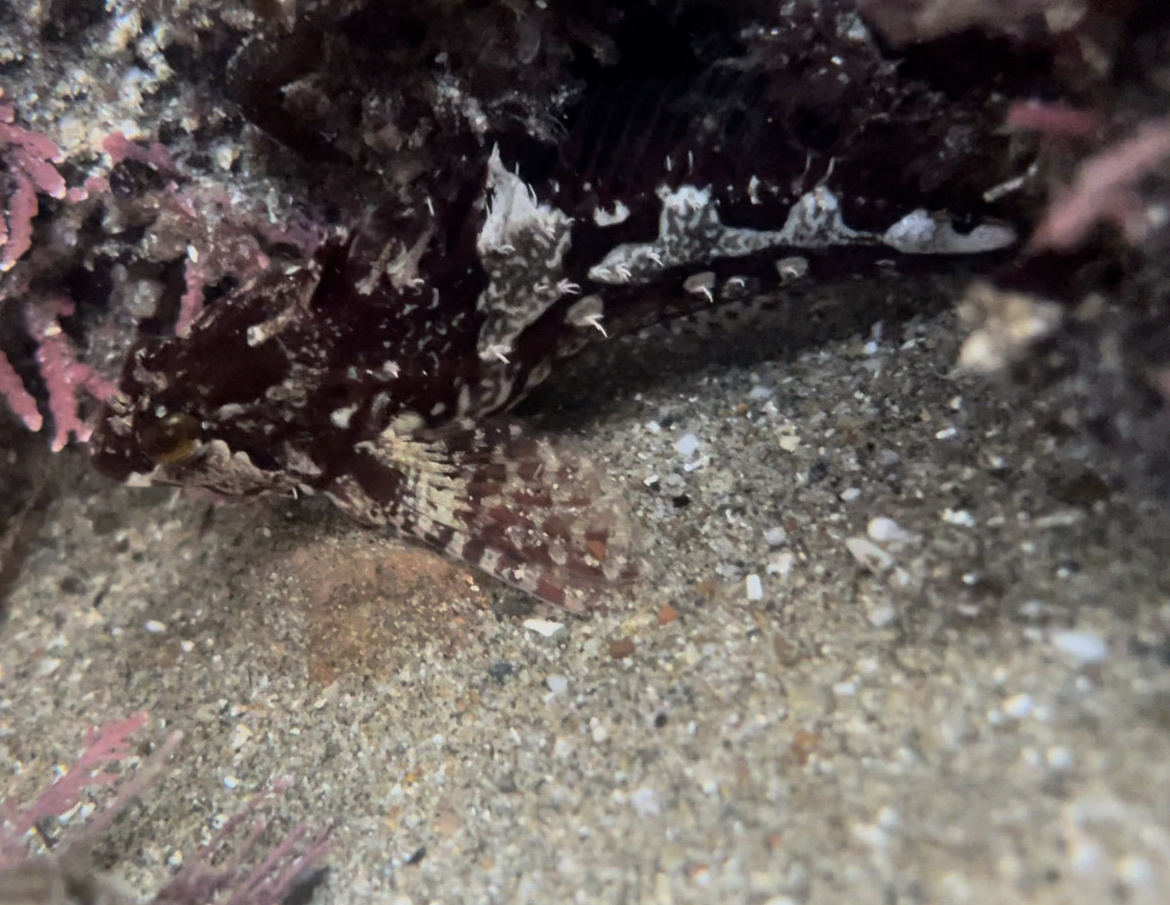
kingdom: Animalia
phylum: Chordata
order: Scorpaeniformes
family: Cottidae
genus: Oligocottus
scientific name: Oligocottus snyderi
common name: Fluffy sculpin
